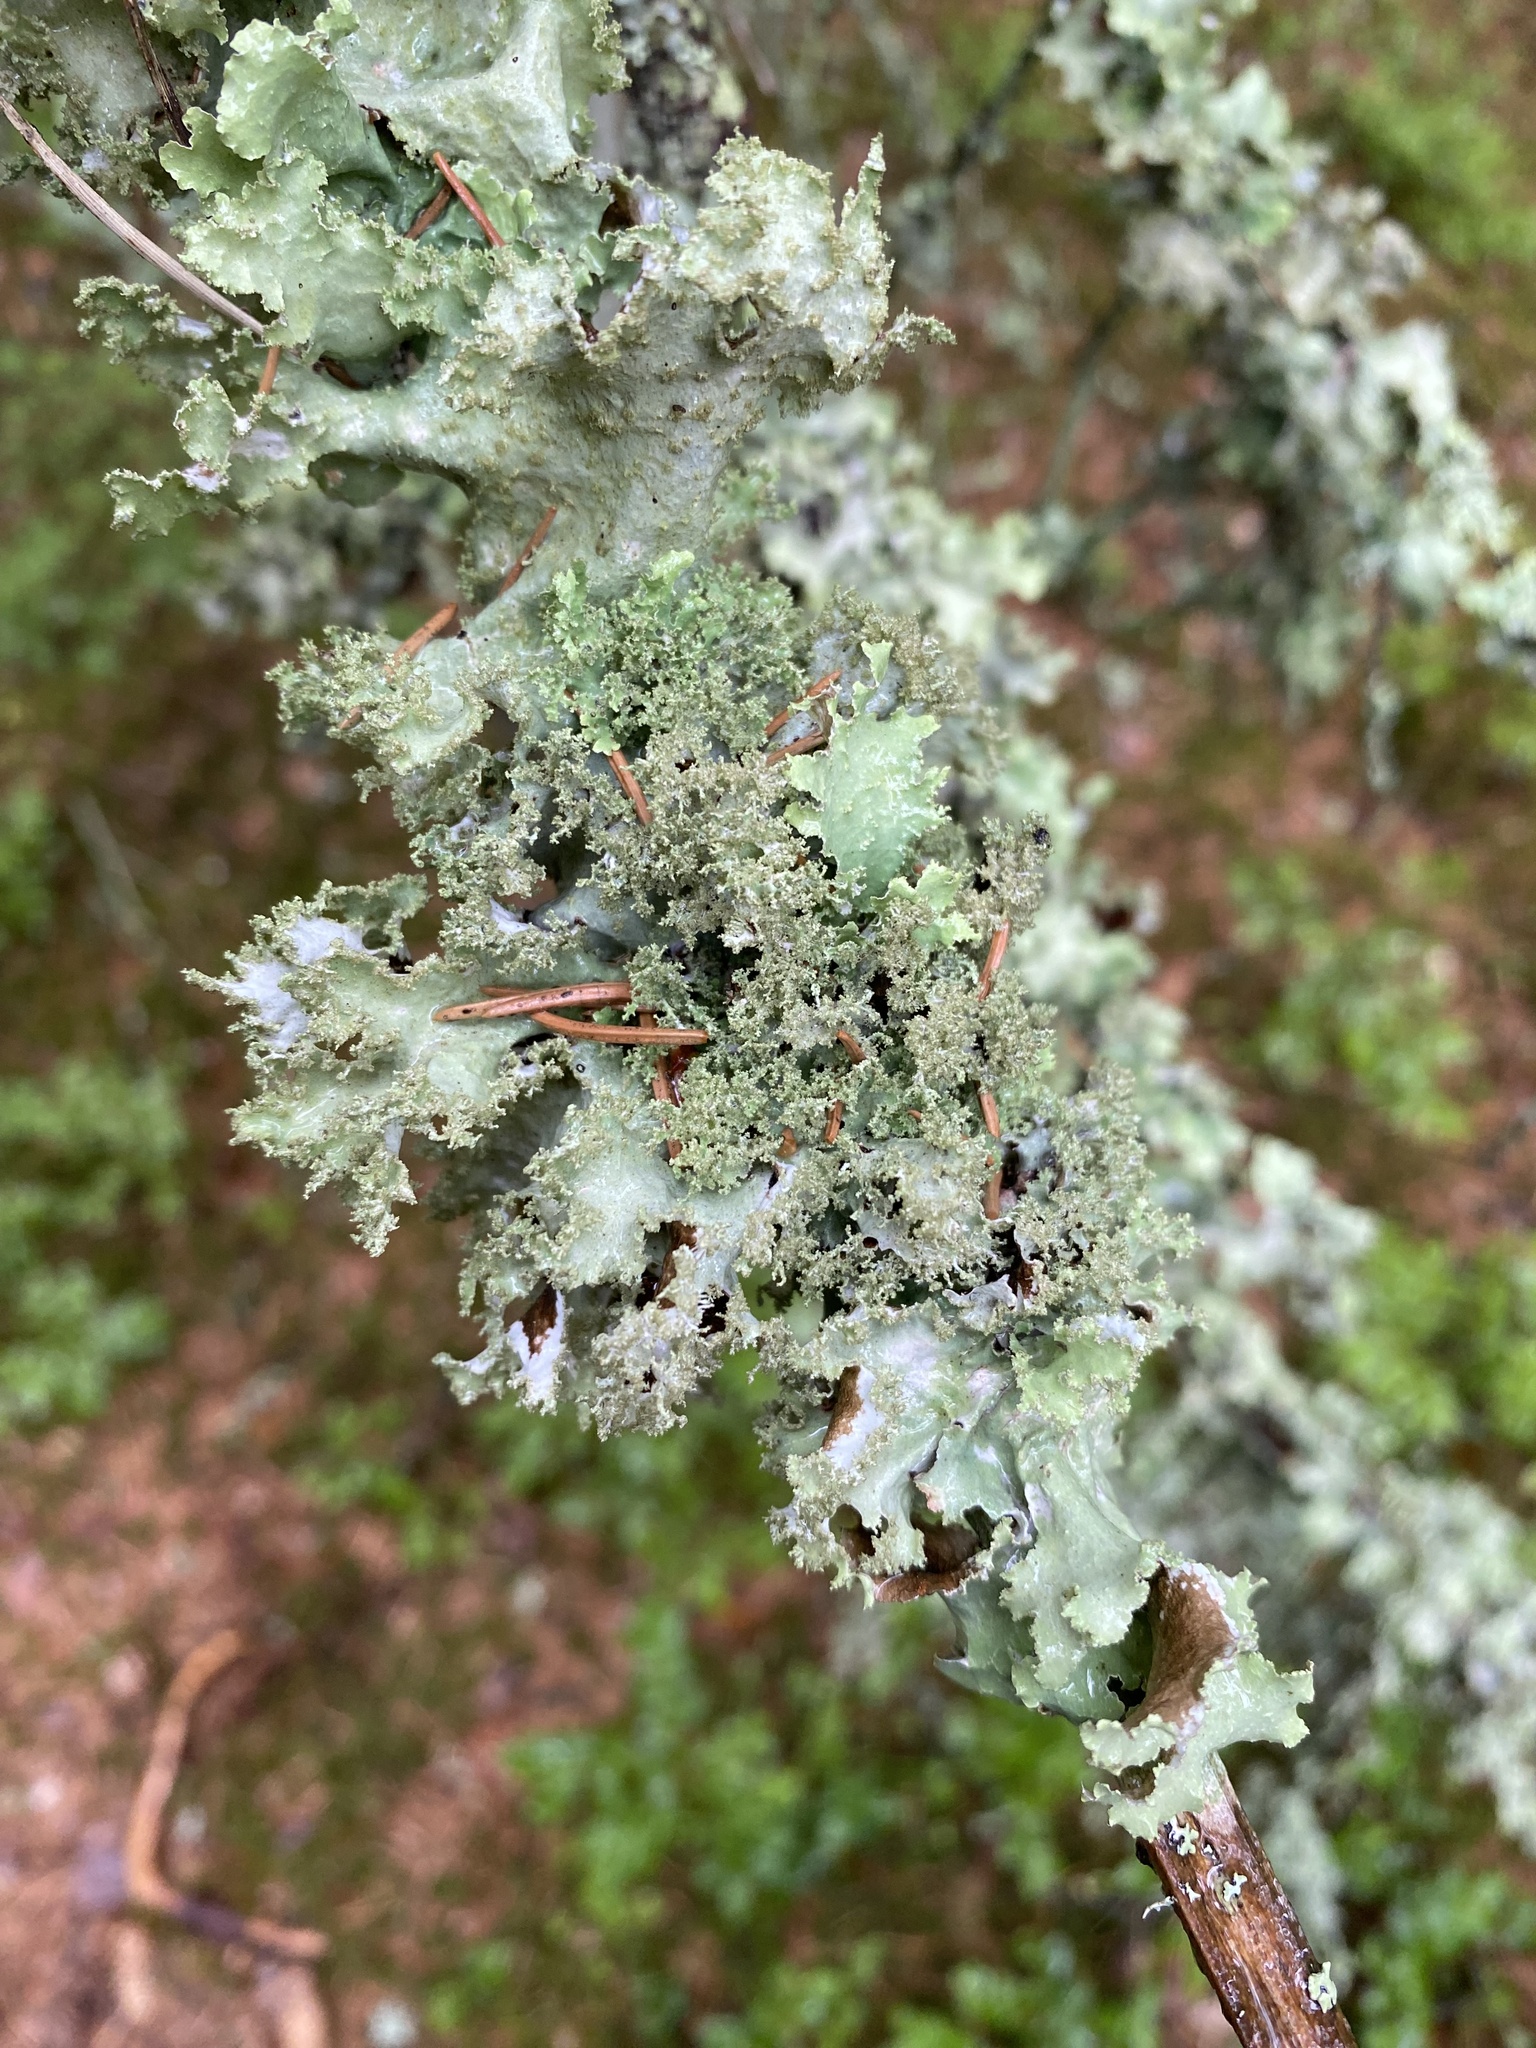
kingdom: Fungi
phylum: Ascomycota
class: Lecanoromycetes
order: Lecanorales
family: Parmeliaceae
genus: Platismatia
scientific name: Platismatia glauca
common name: Varied rag lichen
